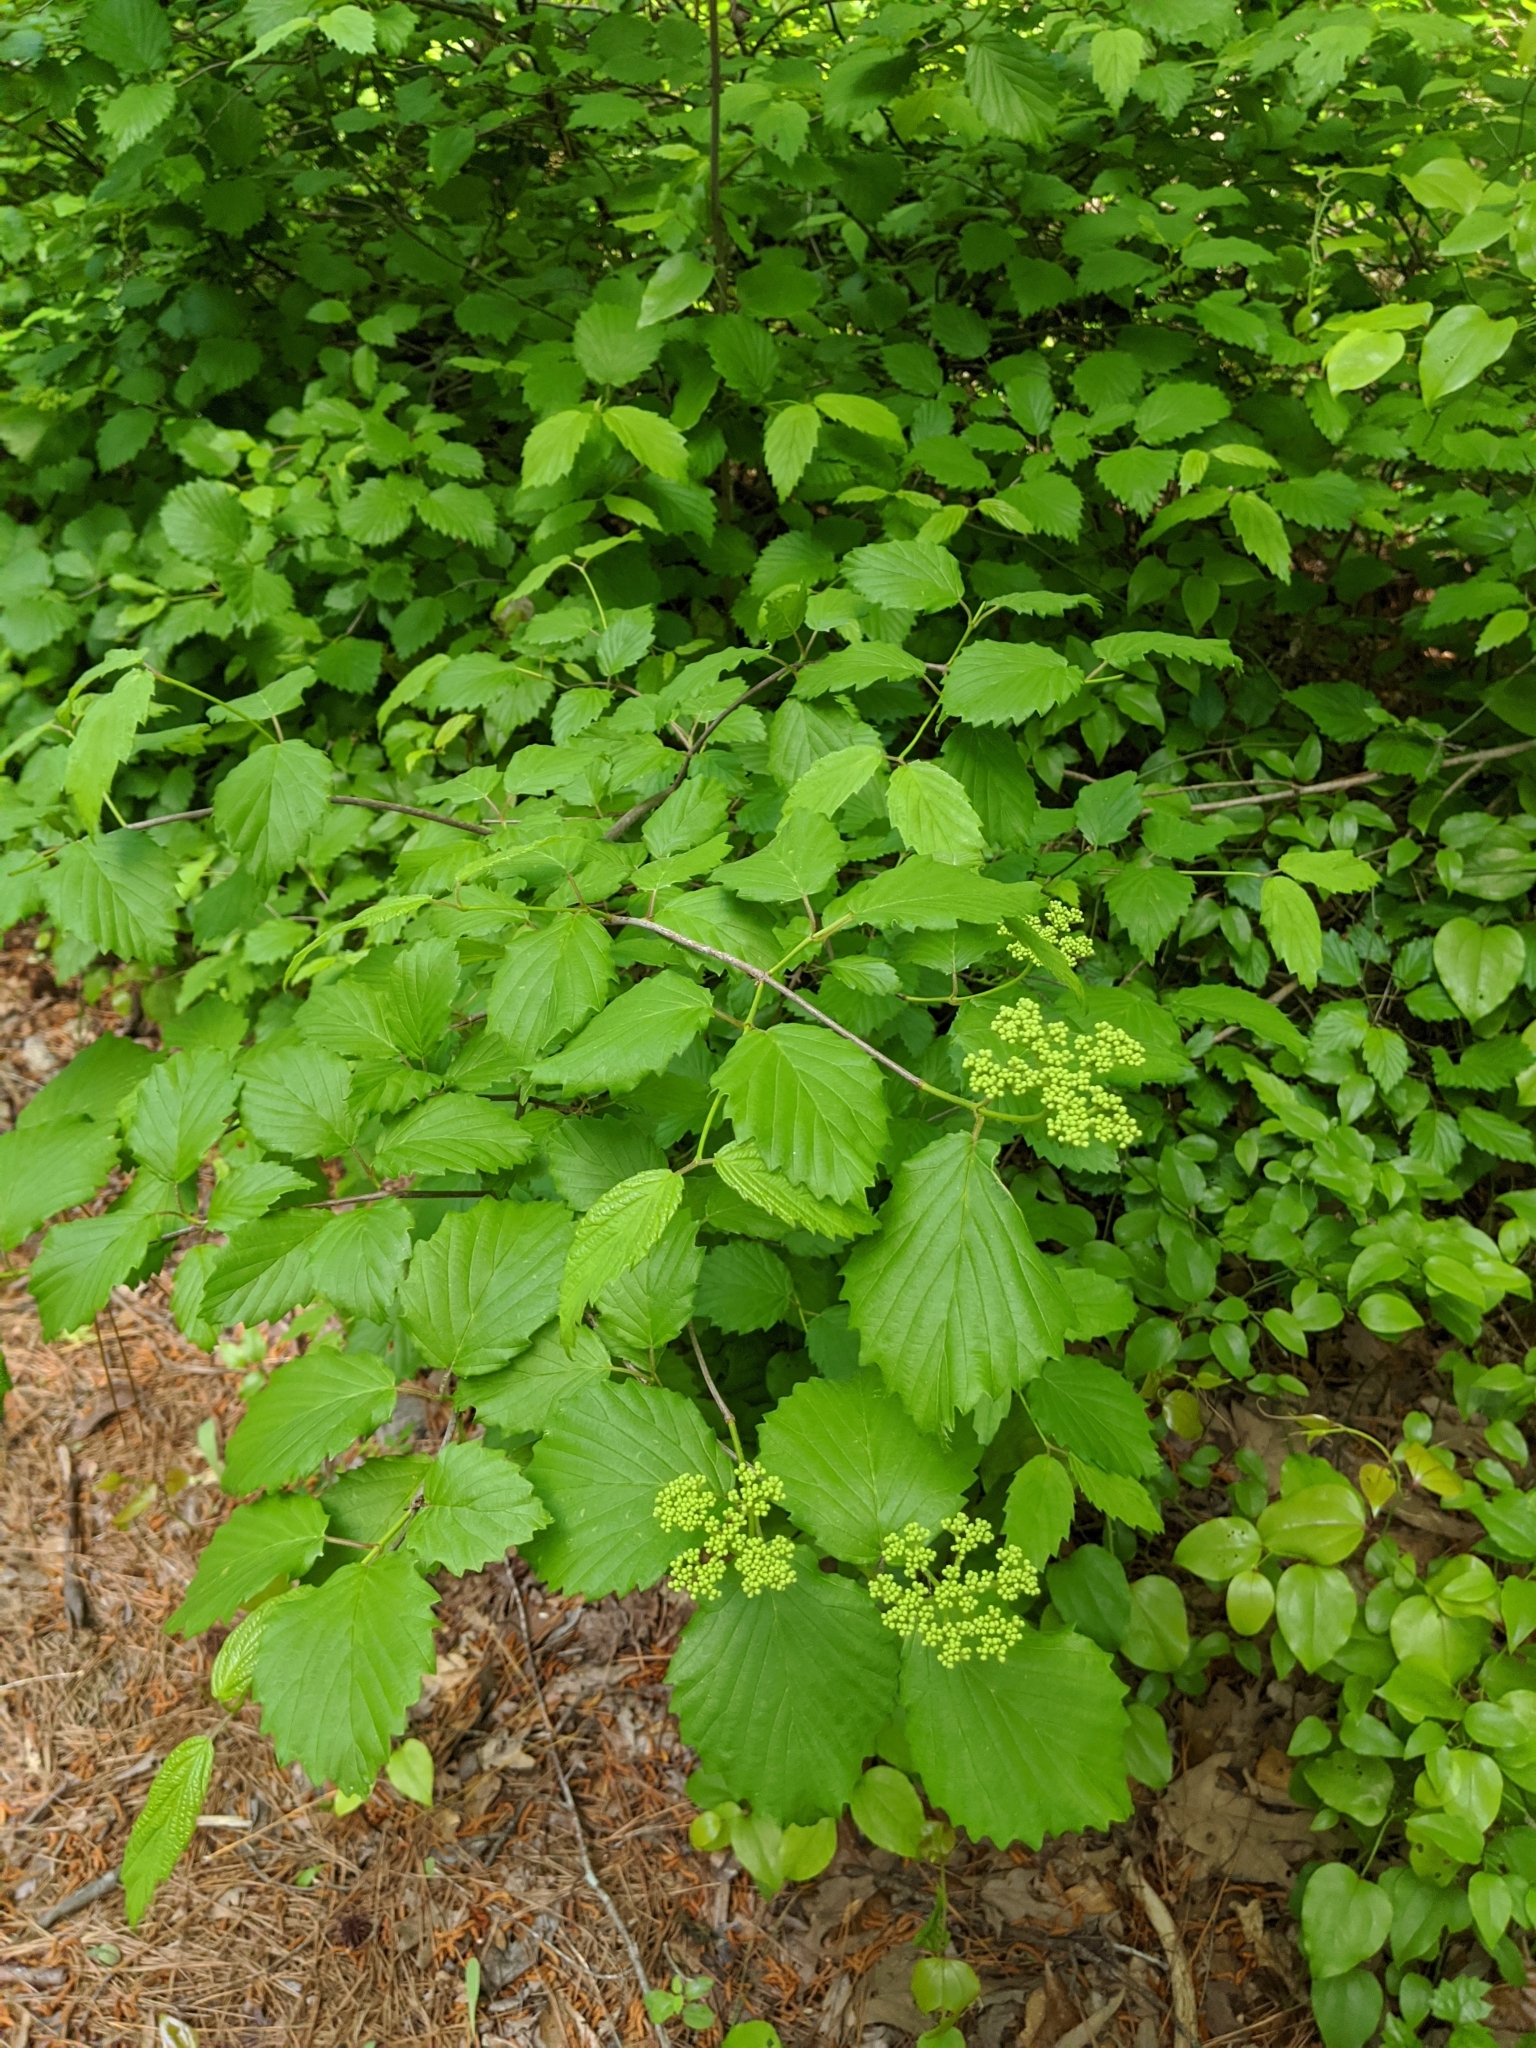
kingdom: Plantae
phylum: Tracheophyta
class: Magnoliopsida
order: Dipsacales
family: Viburnaceae
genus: Viburnum
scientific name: Viburnum dentatum
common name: Arrow-wood
